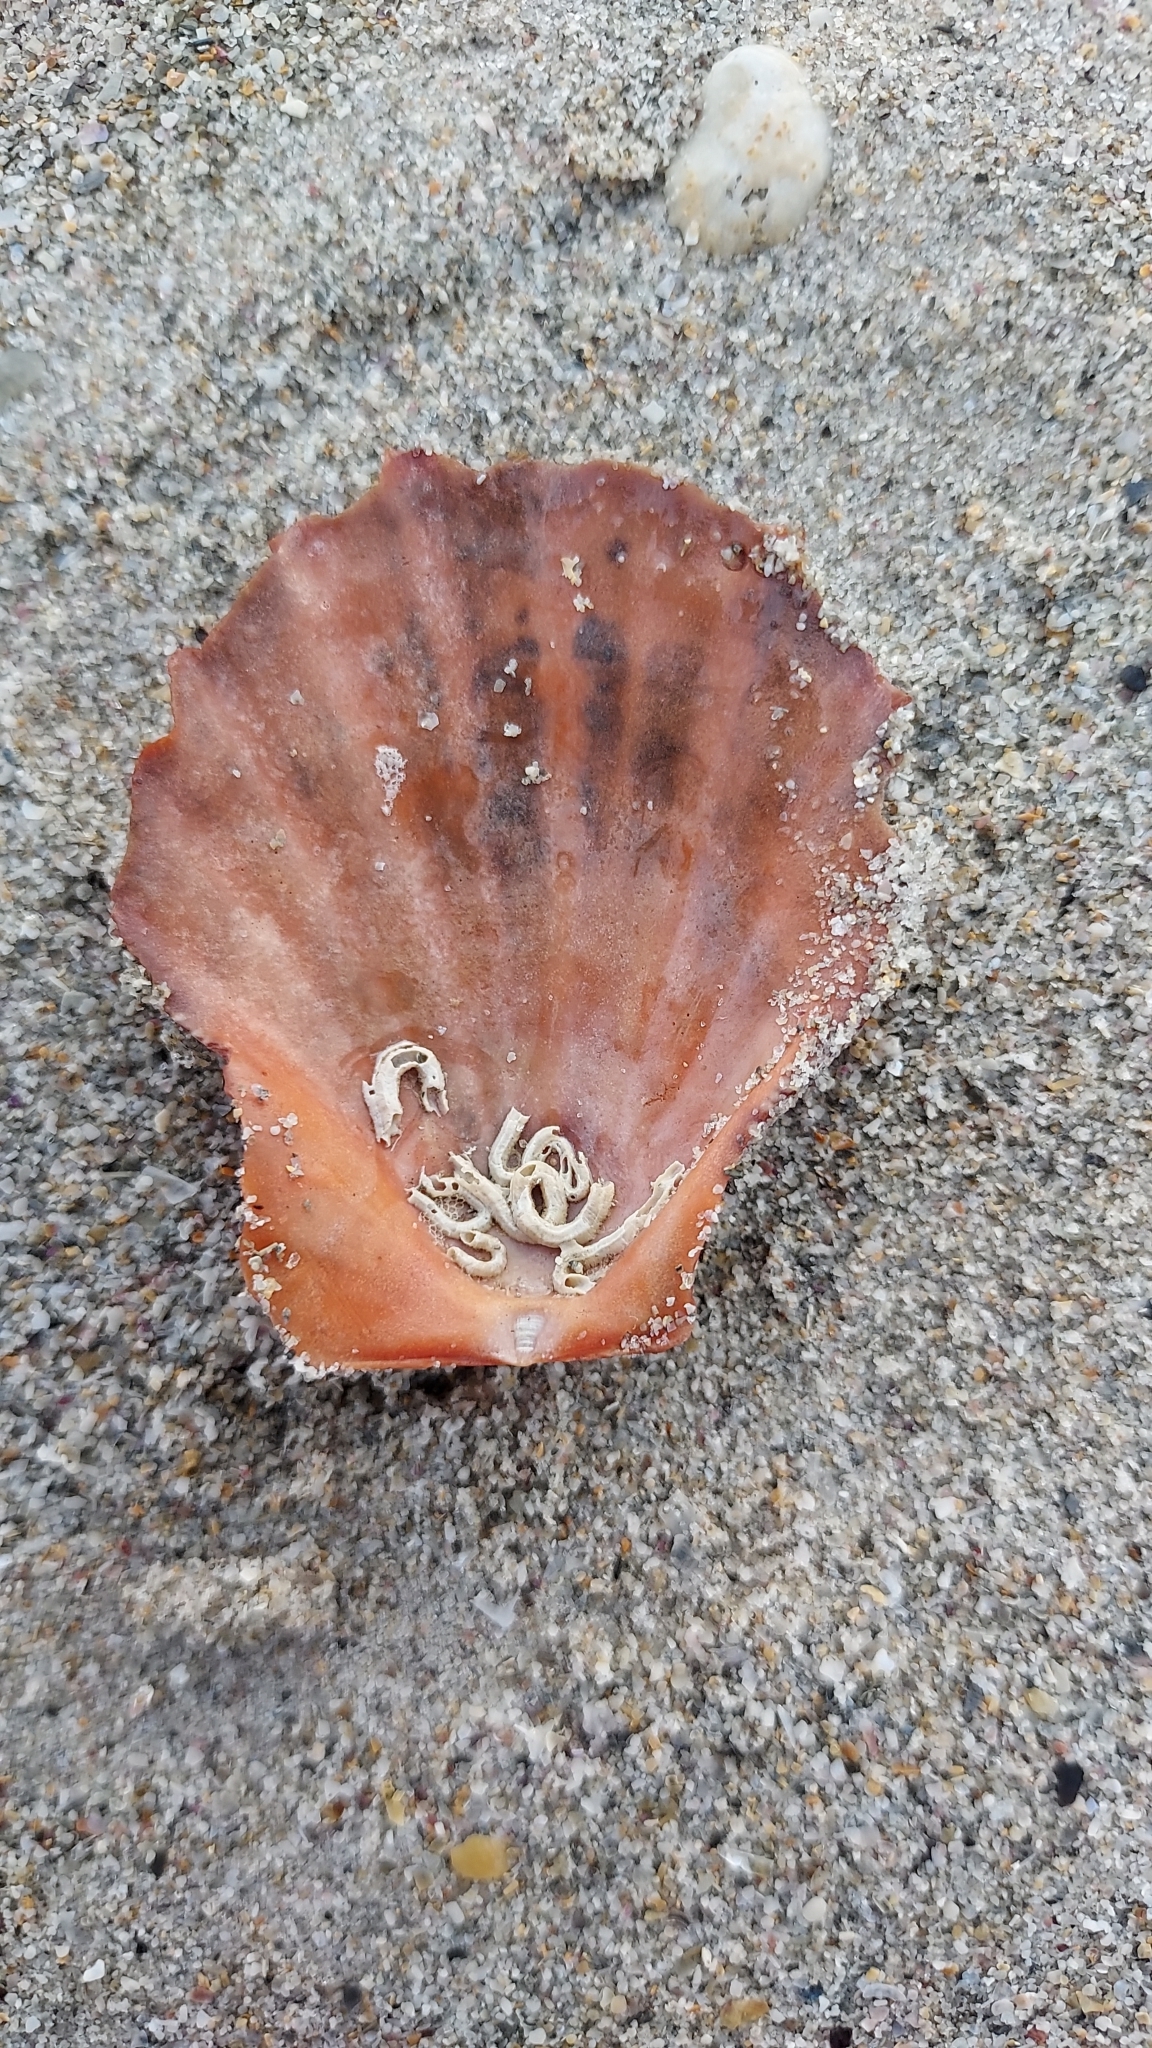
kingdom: Animalia
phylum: Mollusca
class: Bivalvia
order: Pectinida
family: Pectinidae
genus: Scaeochlamys
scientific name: Scaeochlamys livida
